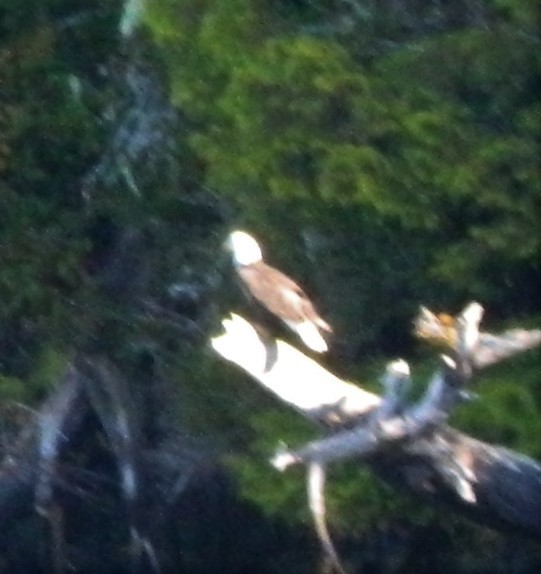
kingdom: Animalia
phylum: Chordata
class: Aves
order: Accipitriformes
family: Accipitridae
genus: Haliaeetus
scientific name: Haliaeetus leucocephalus
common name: Bald eagle
